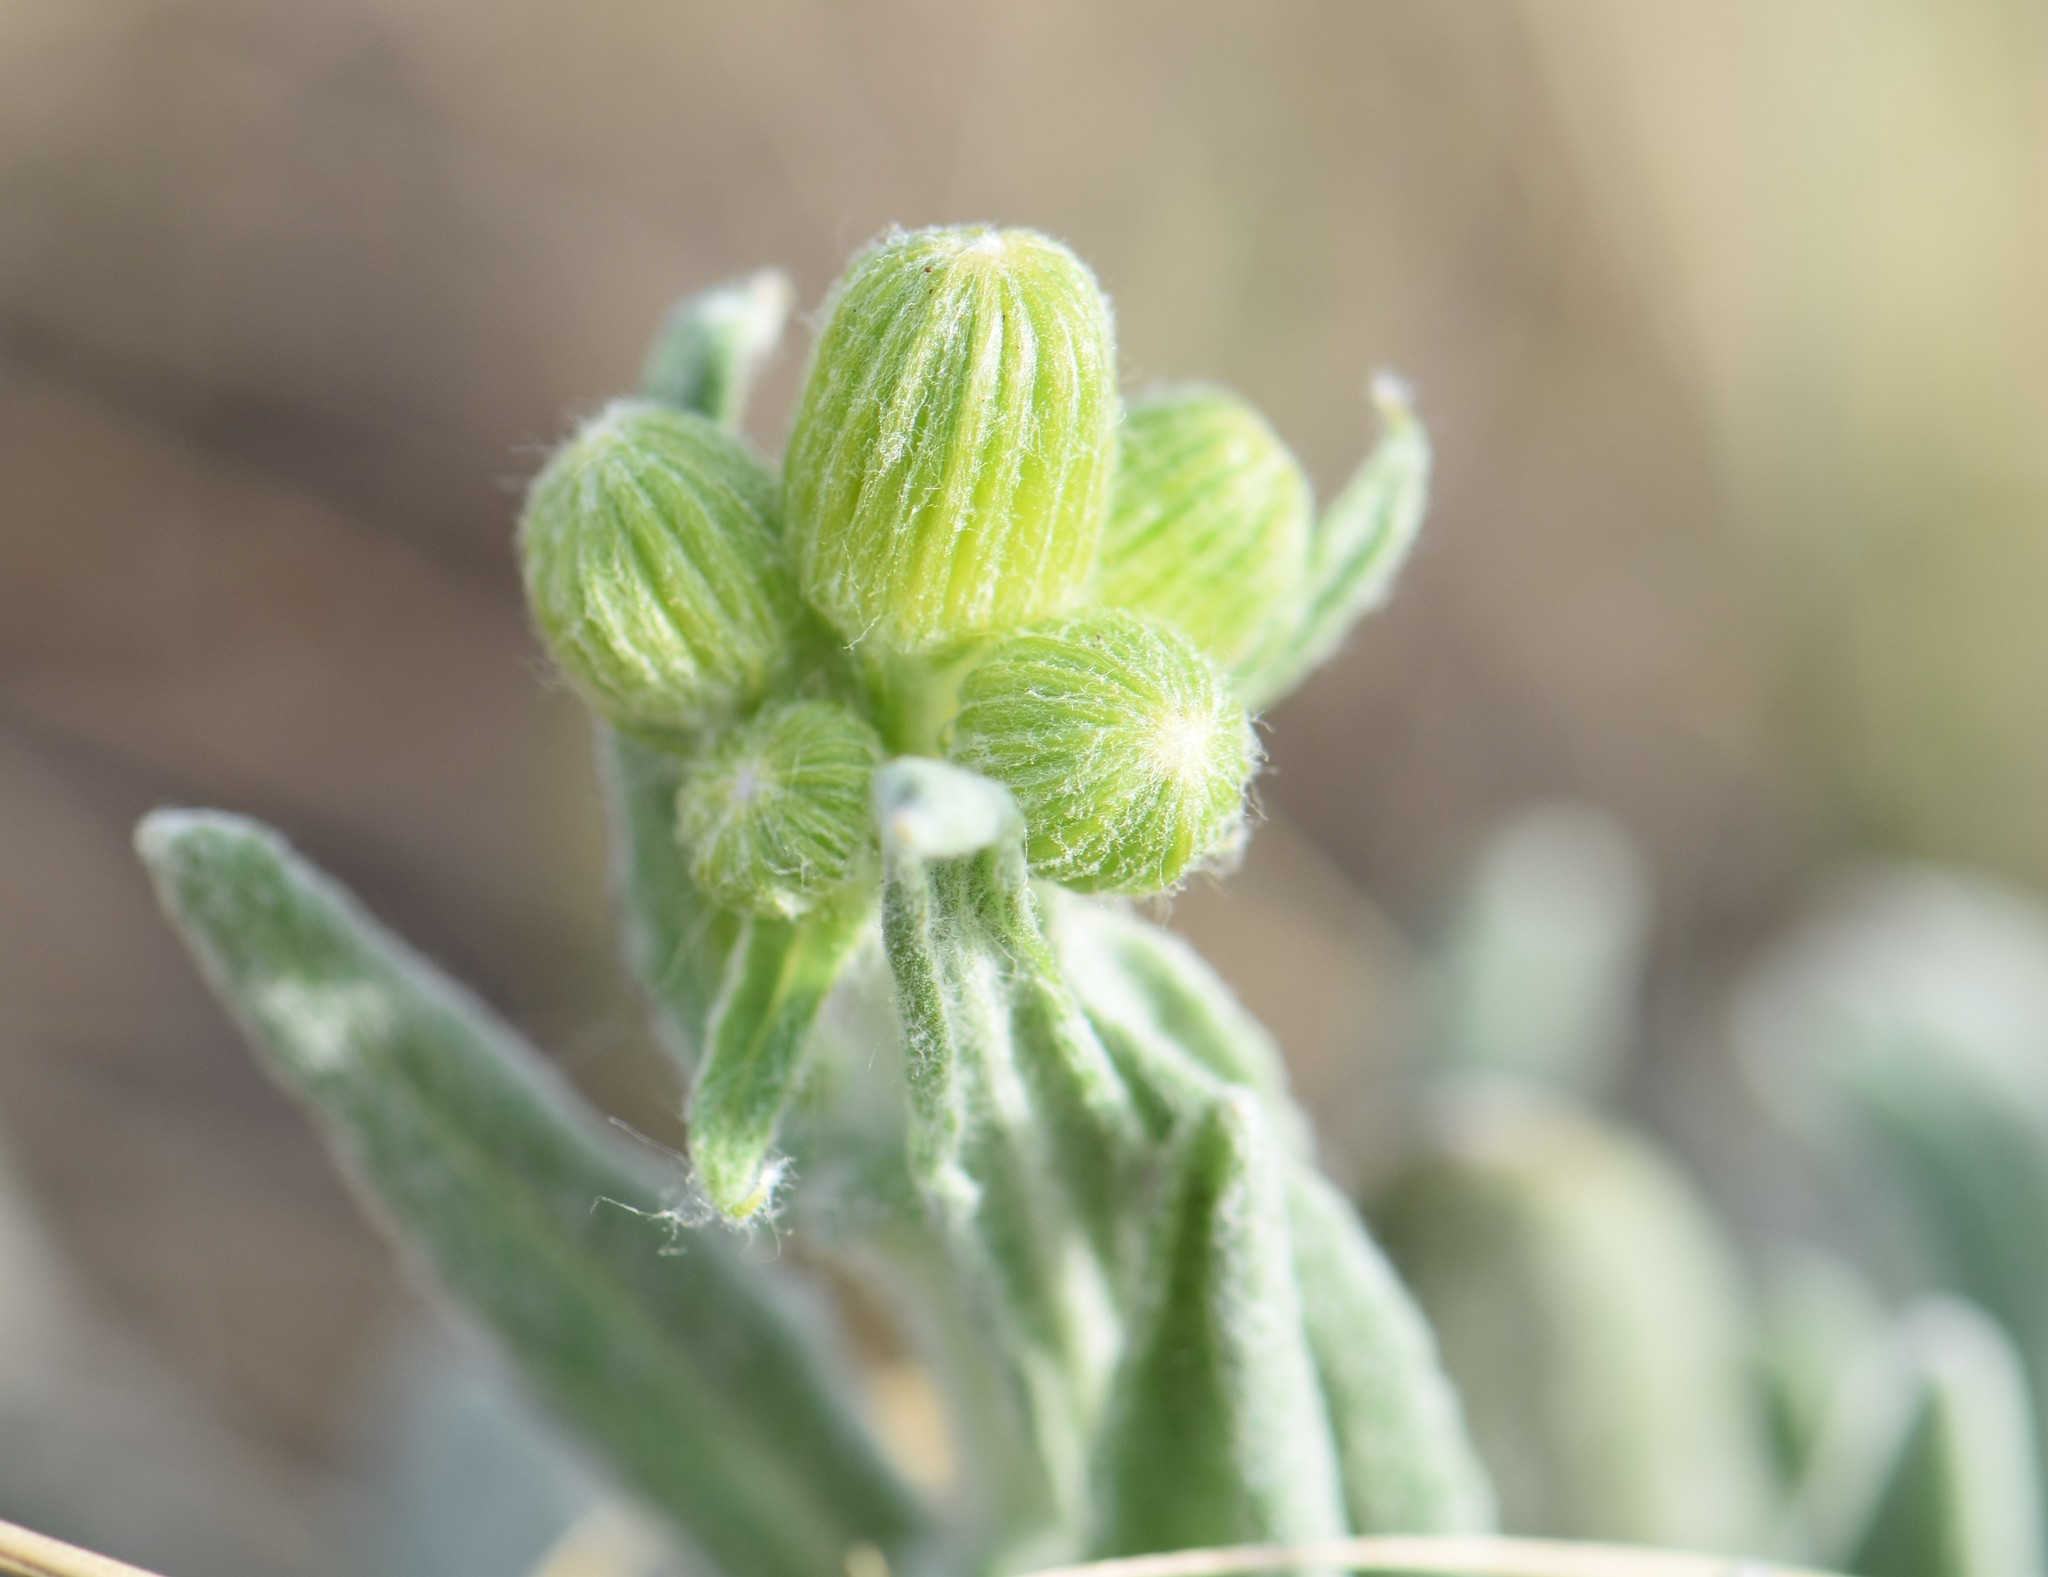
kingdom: Plantae
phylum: Tracheophyta
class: Magnoliopsida
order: Asterales
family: Asteraceae
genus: Packera
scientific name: Packera cana
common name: Woolly groundsel
